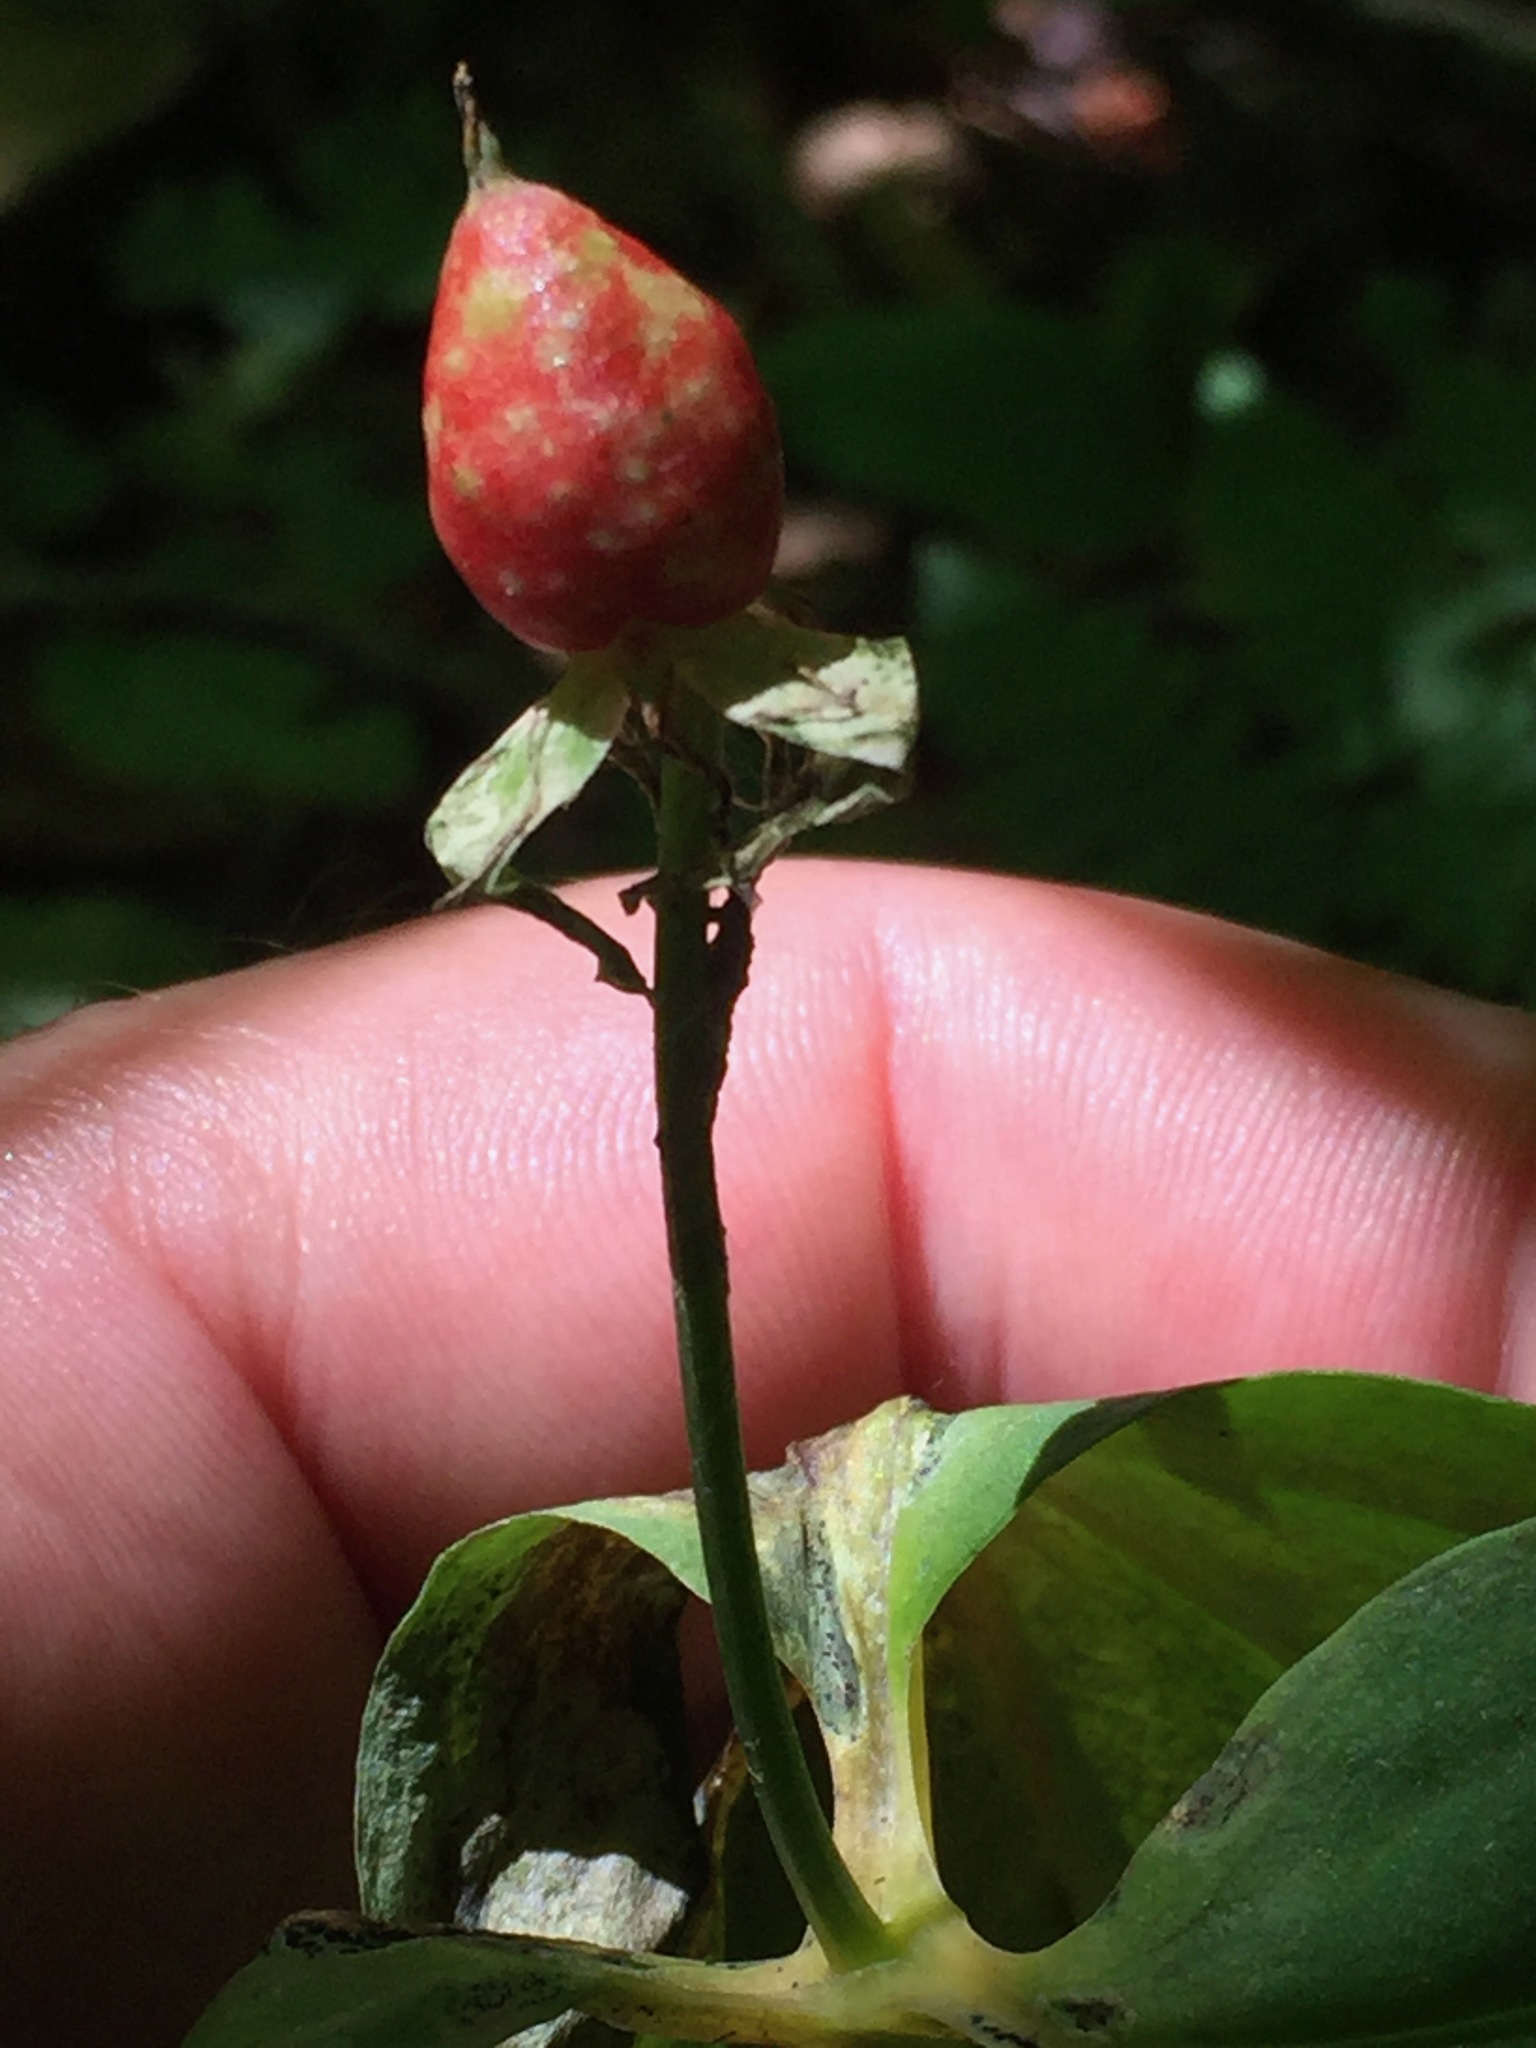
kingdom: Plantae
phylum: Tracheophyta
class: Liliopsida
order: Liliales
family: Melanthiaceae
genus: Trillium
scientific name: Trillium undulatum
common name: Paint trillium
